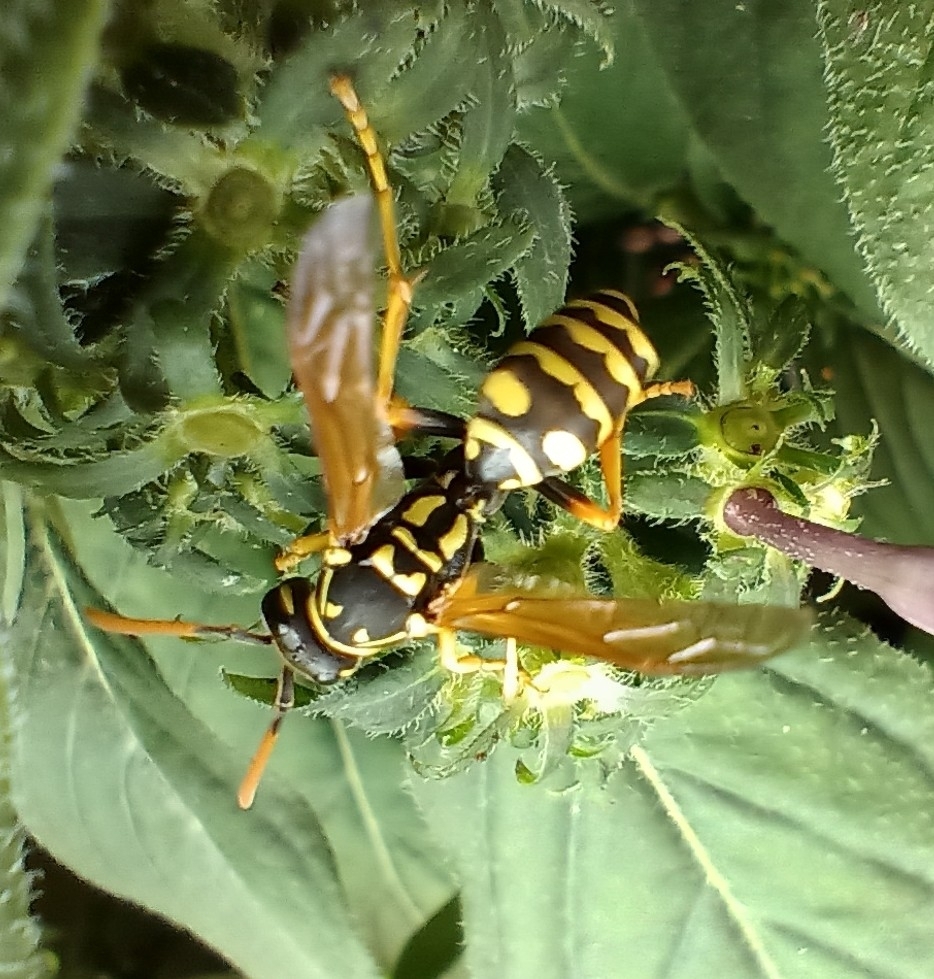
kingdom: Animalia
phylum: Arthropoda
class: Insecta
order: Hymenoptera
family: Eumenidae
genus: Polistes
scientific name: Polistes dominula
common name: Paper wasp
